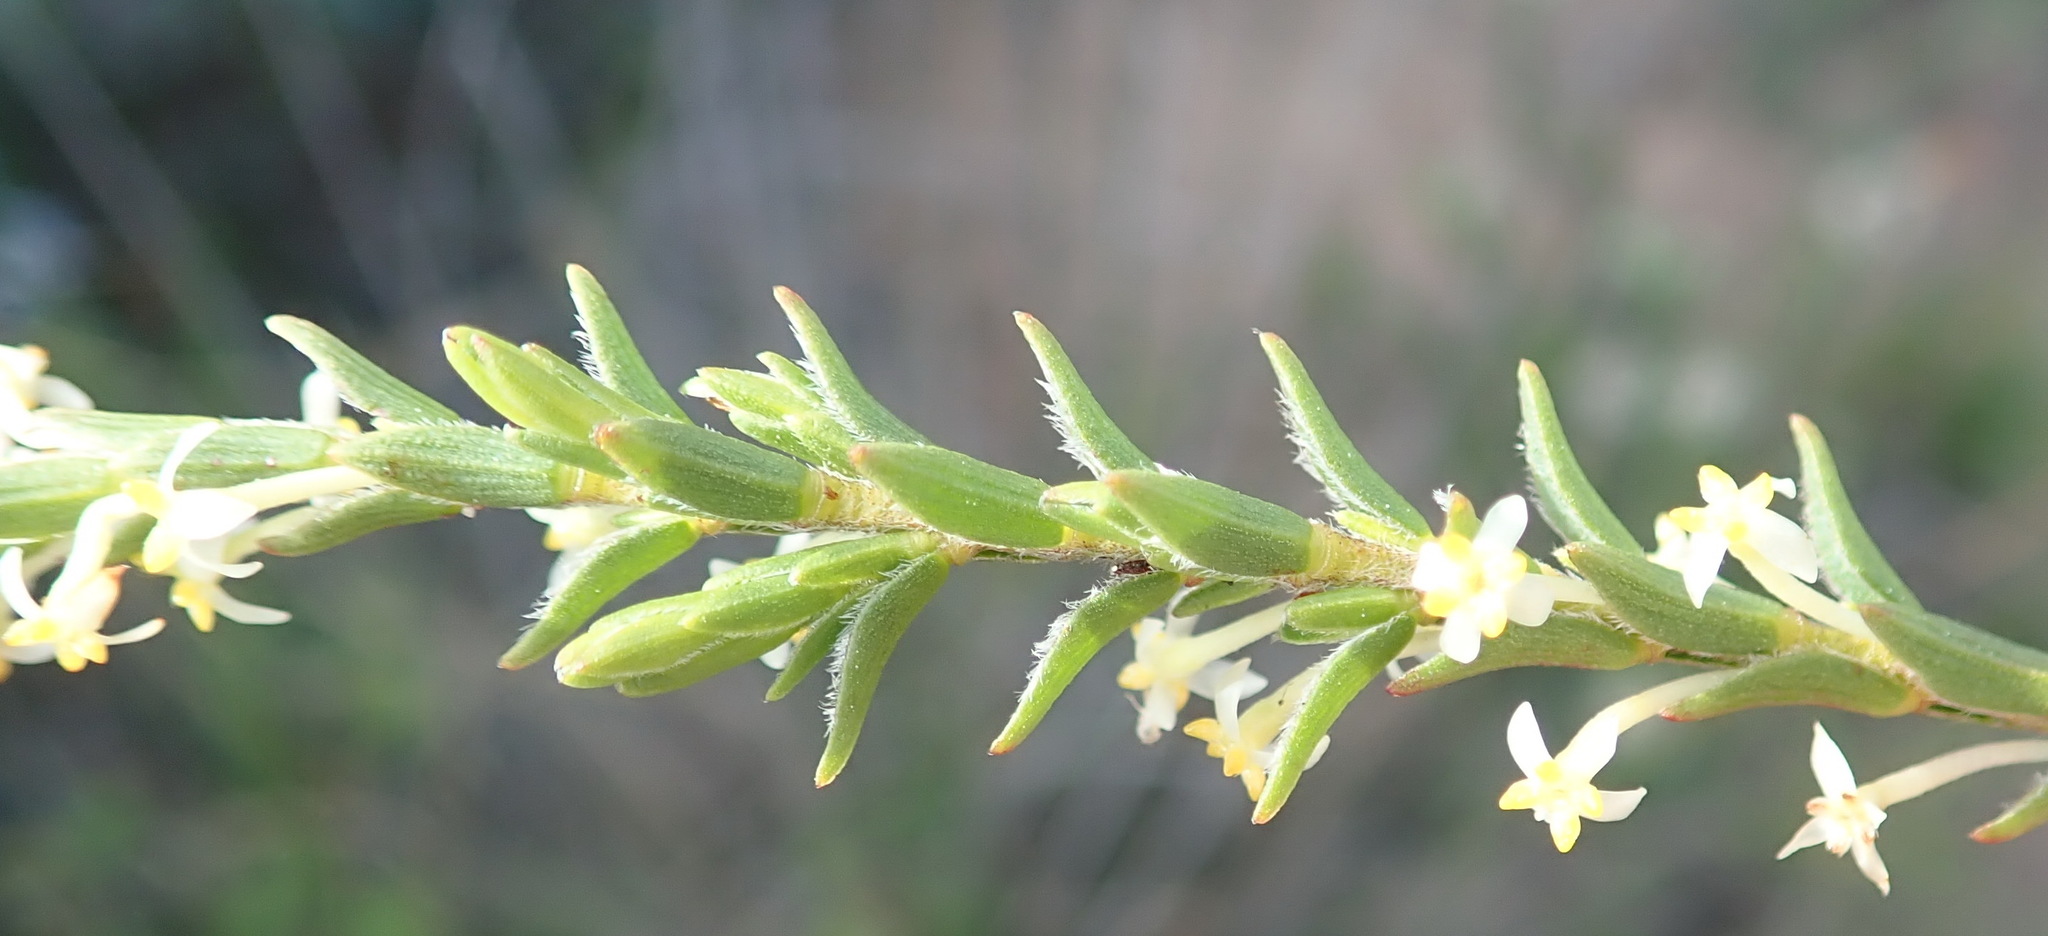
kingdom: Plantae
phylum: Tracheophyta
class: Magnoliopsida
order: Malvales
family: Thymelaeaceae
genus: Struthiola
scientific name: Struthiola striata
